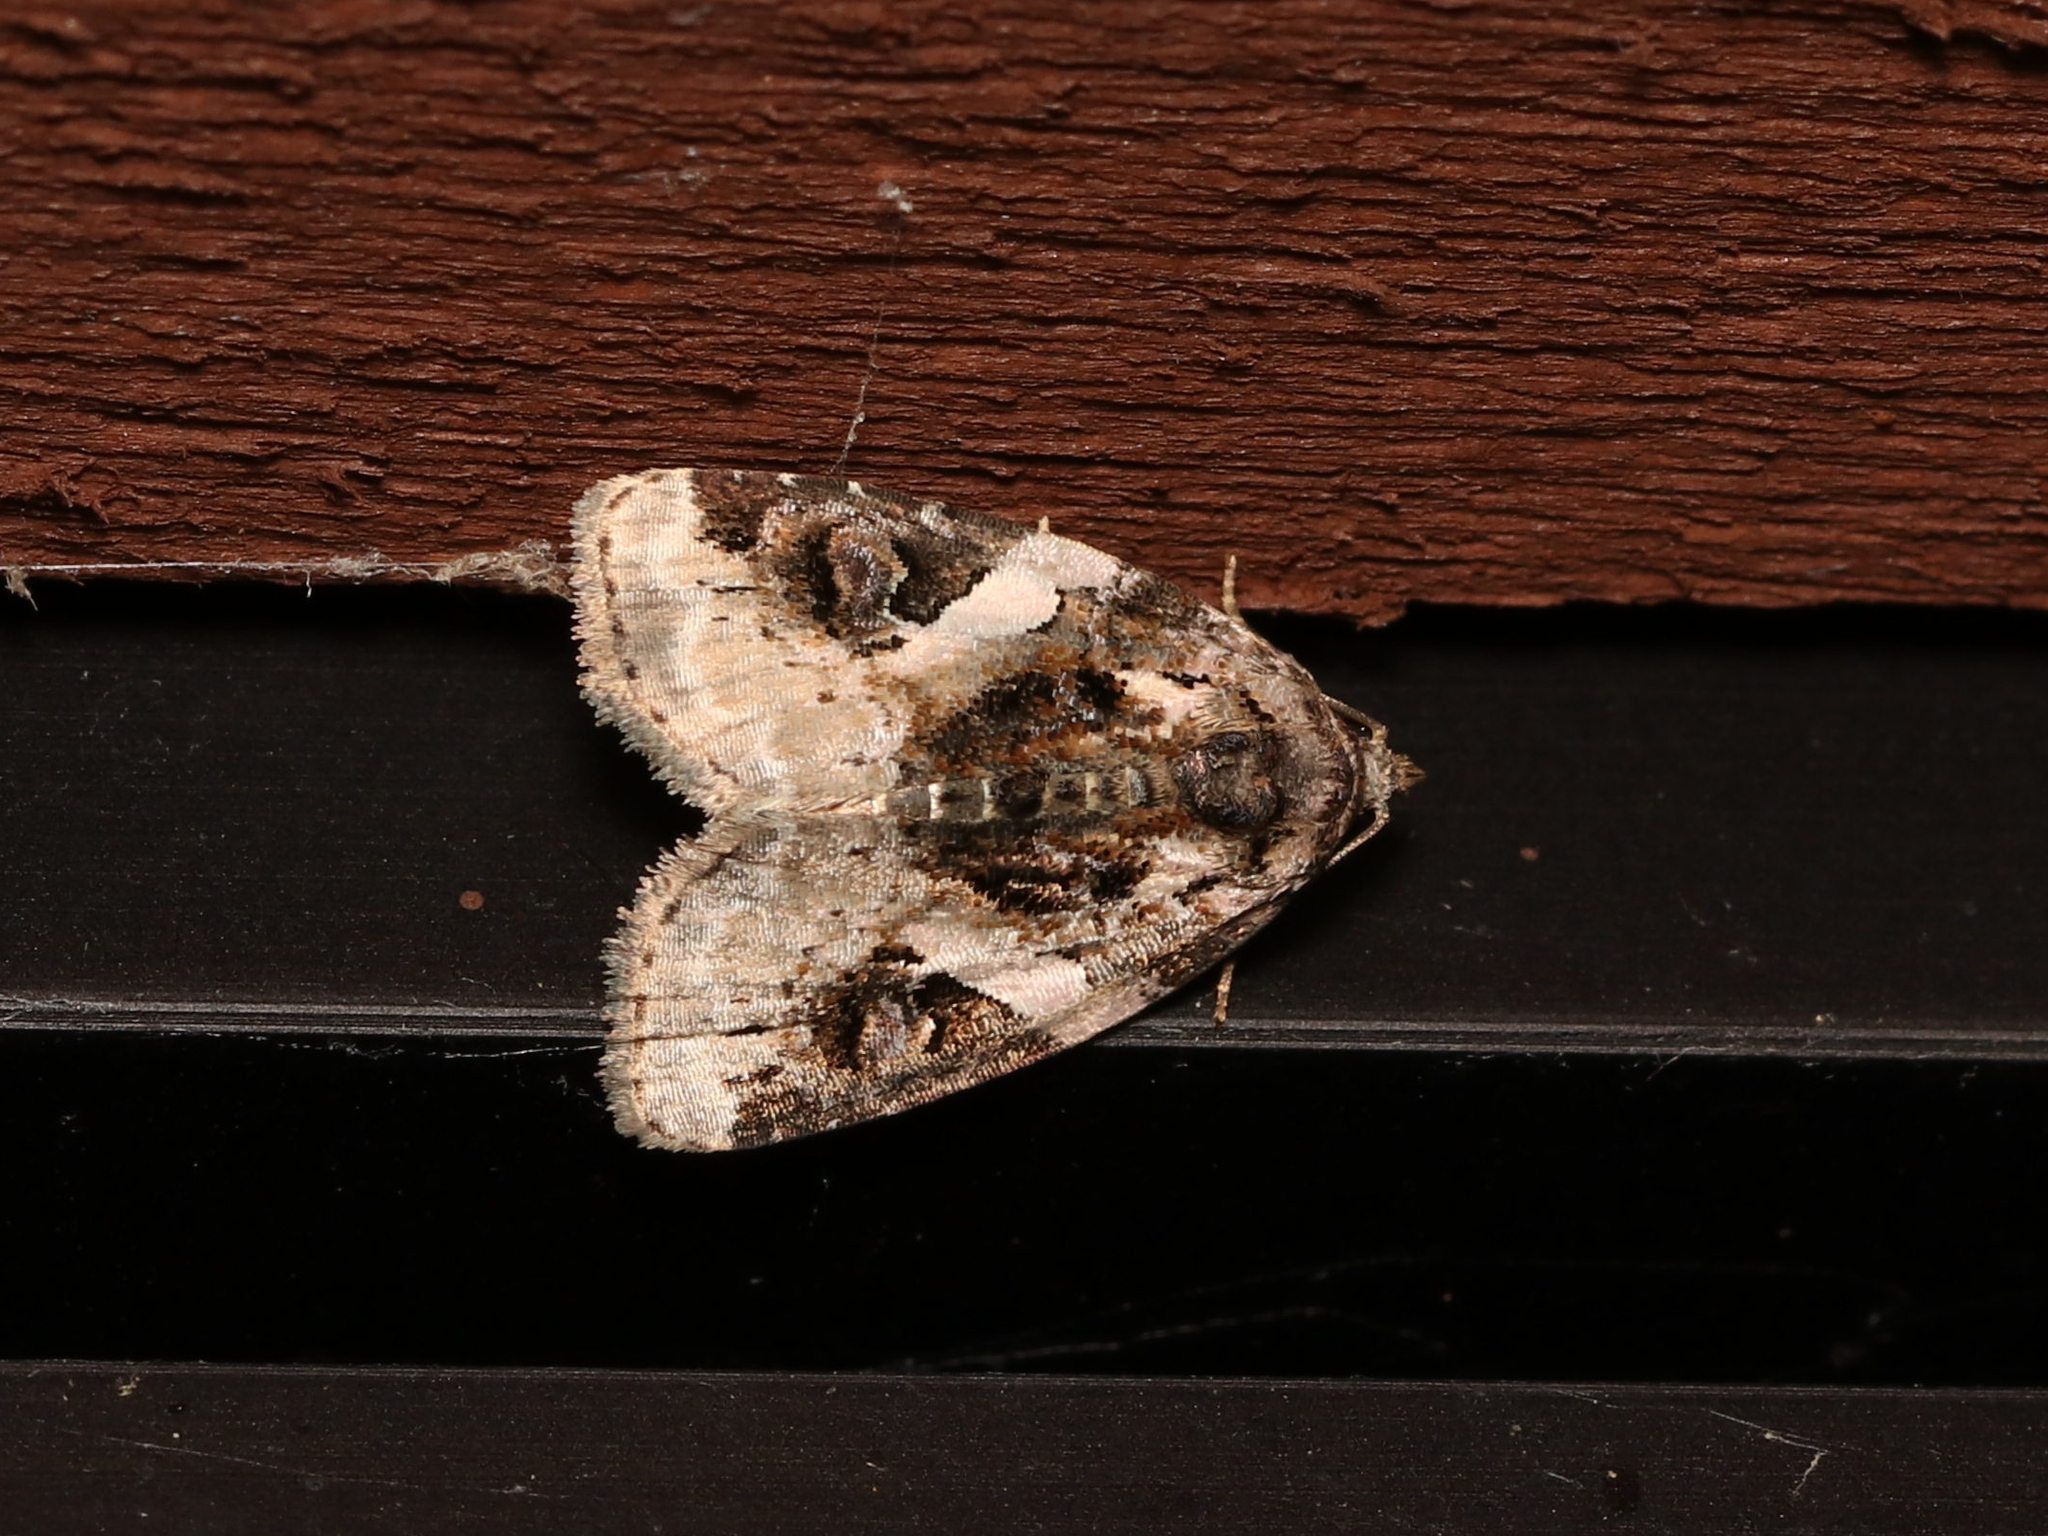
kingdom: Animalia
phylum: Arthropoda
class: Insecta
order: Lepidoptera
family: Noctuidae
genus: Pseudeustrotia
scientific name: Pseudeustrotia carneola
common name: Pink-barred lithacodia moth
